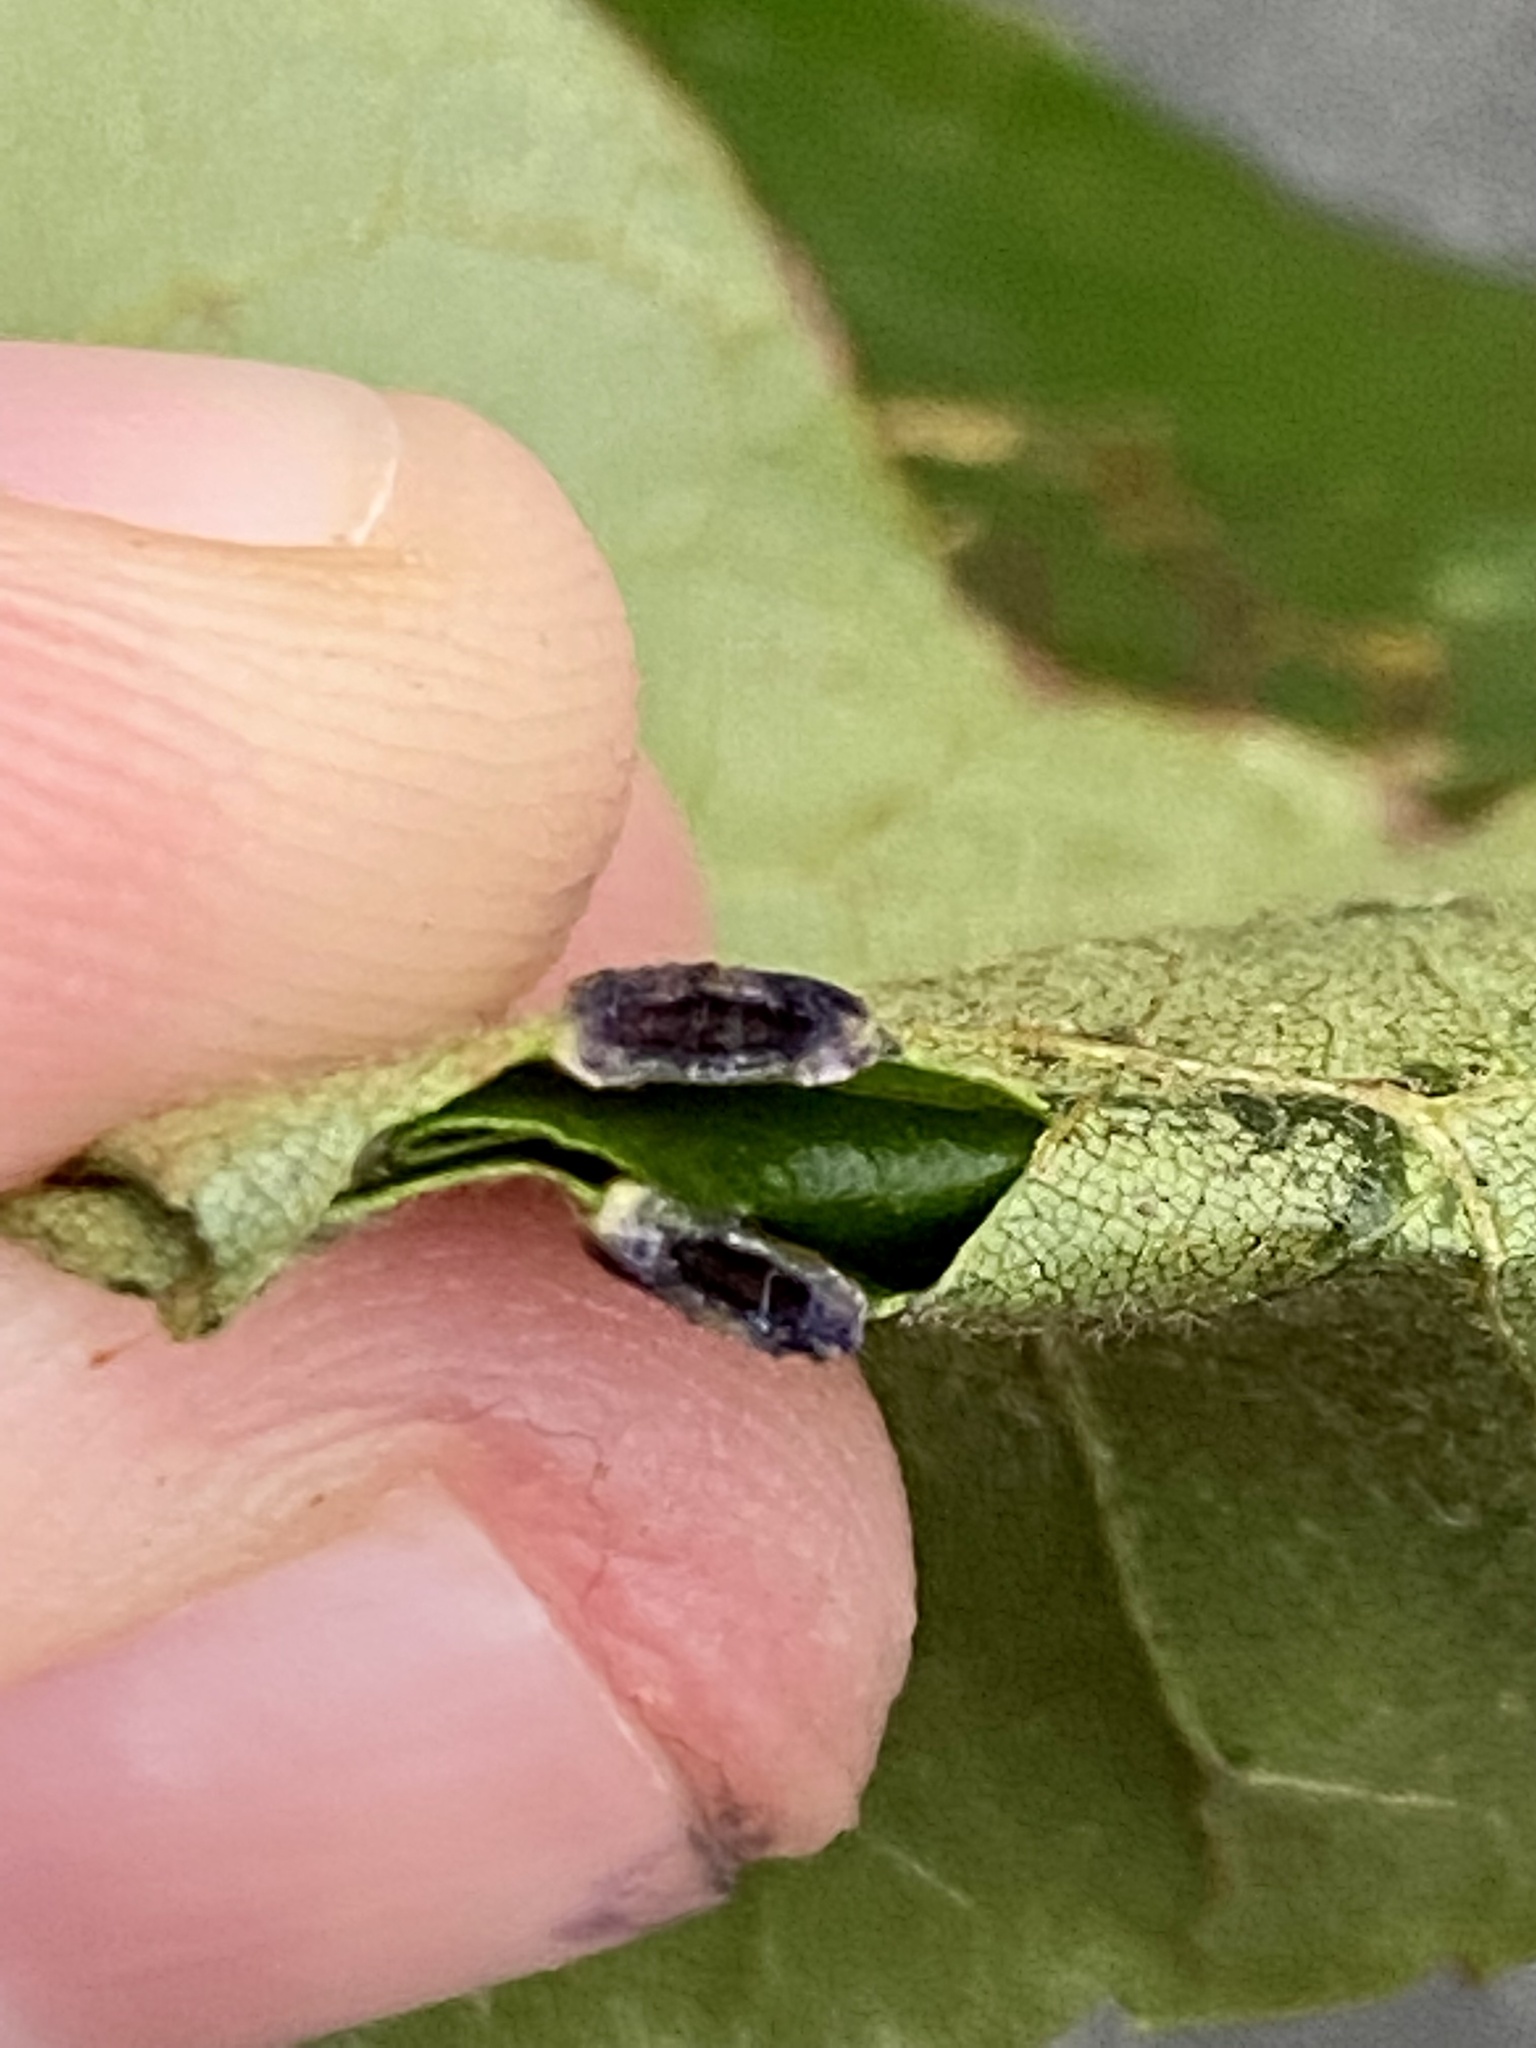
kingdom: Animalia
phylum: Arthropoda
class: Insecta
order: Diptera
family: Cecidomyiidae
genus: Caryadiplosis
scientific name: Caryadiplosis biconvexa
